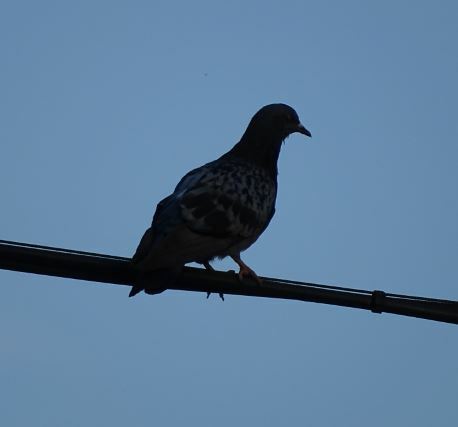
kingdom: Animalia
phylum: Chordata
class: Aves
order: Columbiformes
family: Columbidae
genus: Columba
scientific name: Columba livia
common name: Rock pigeon
